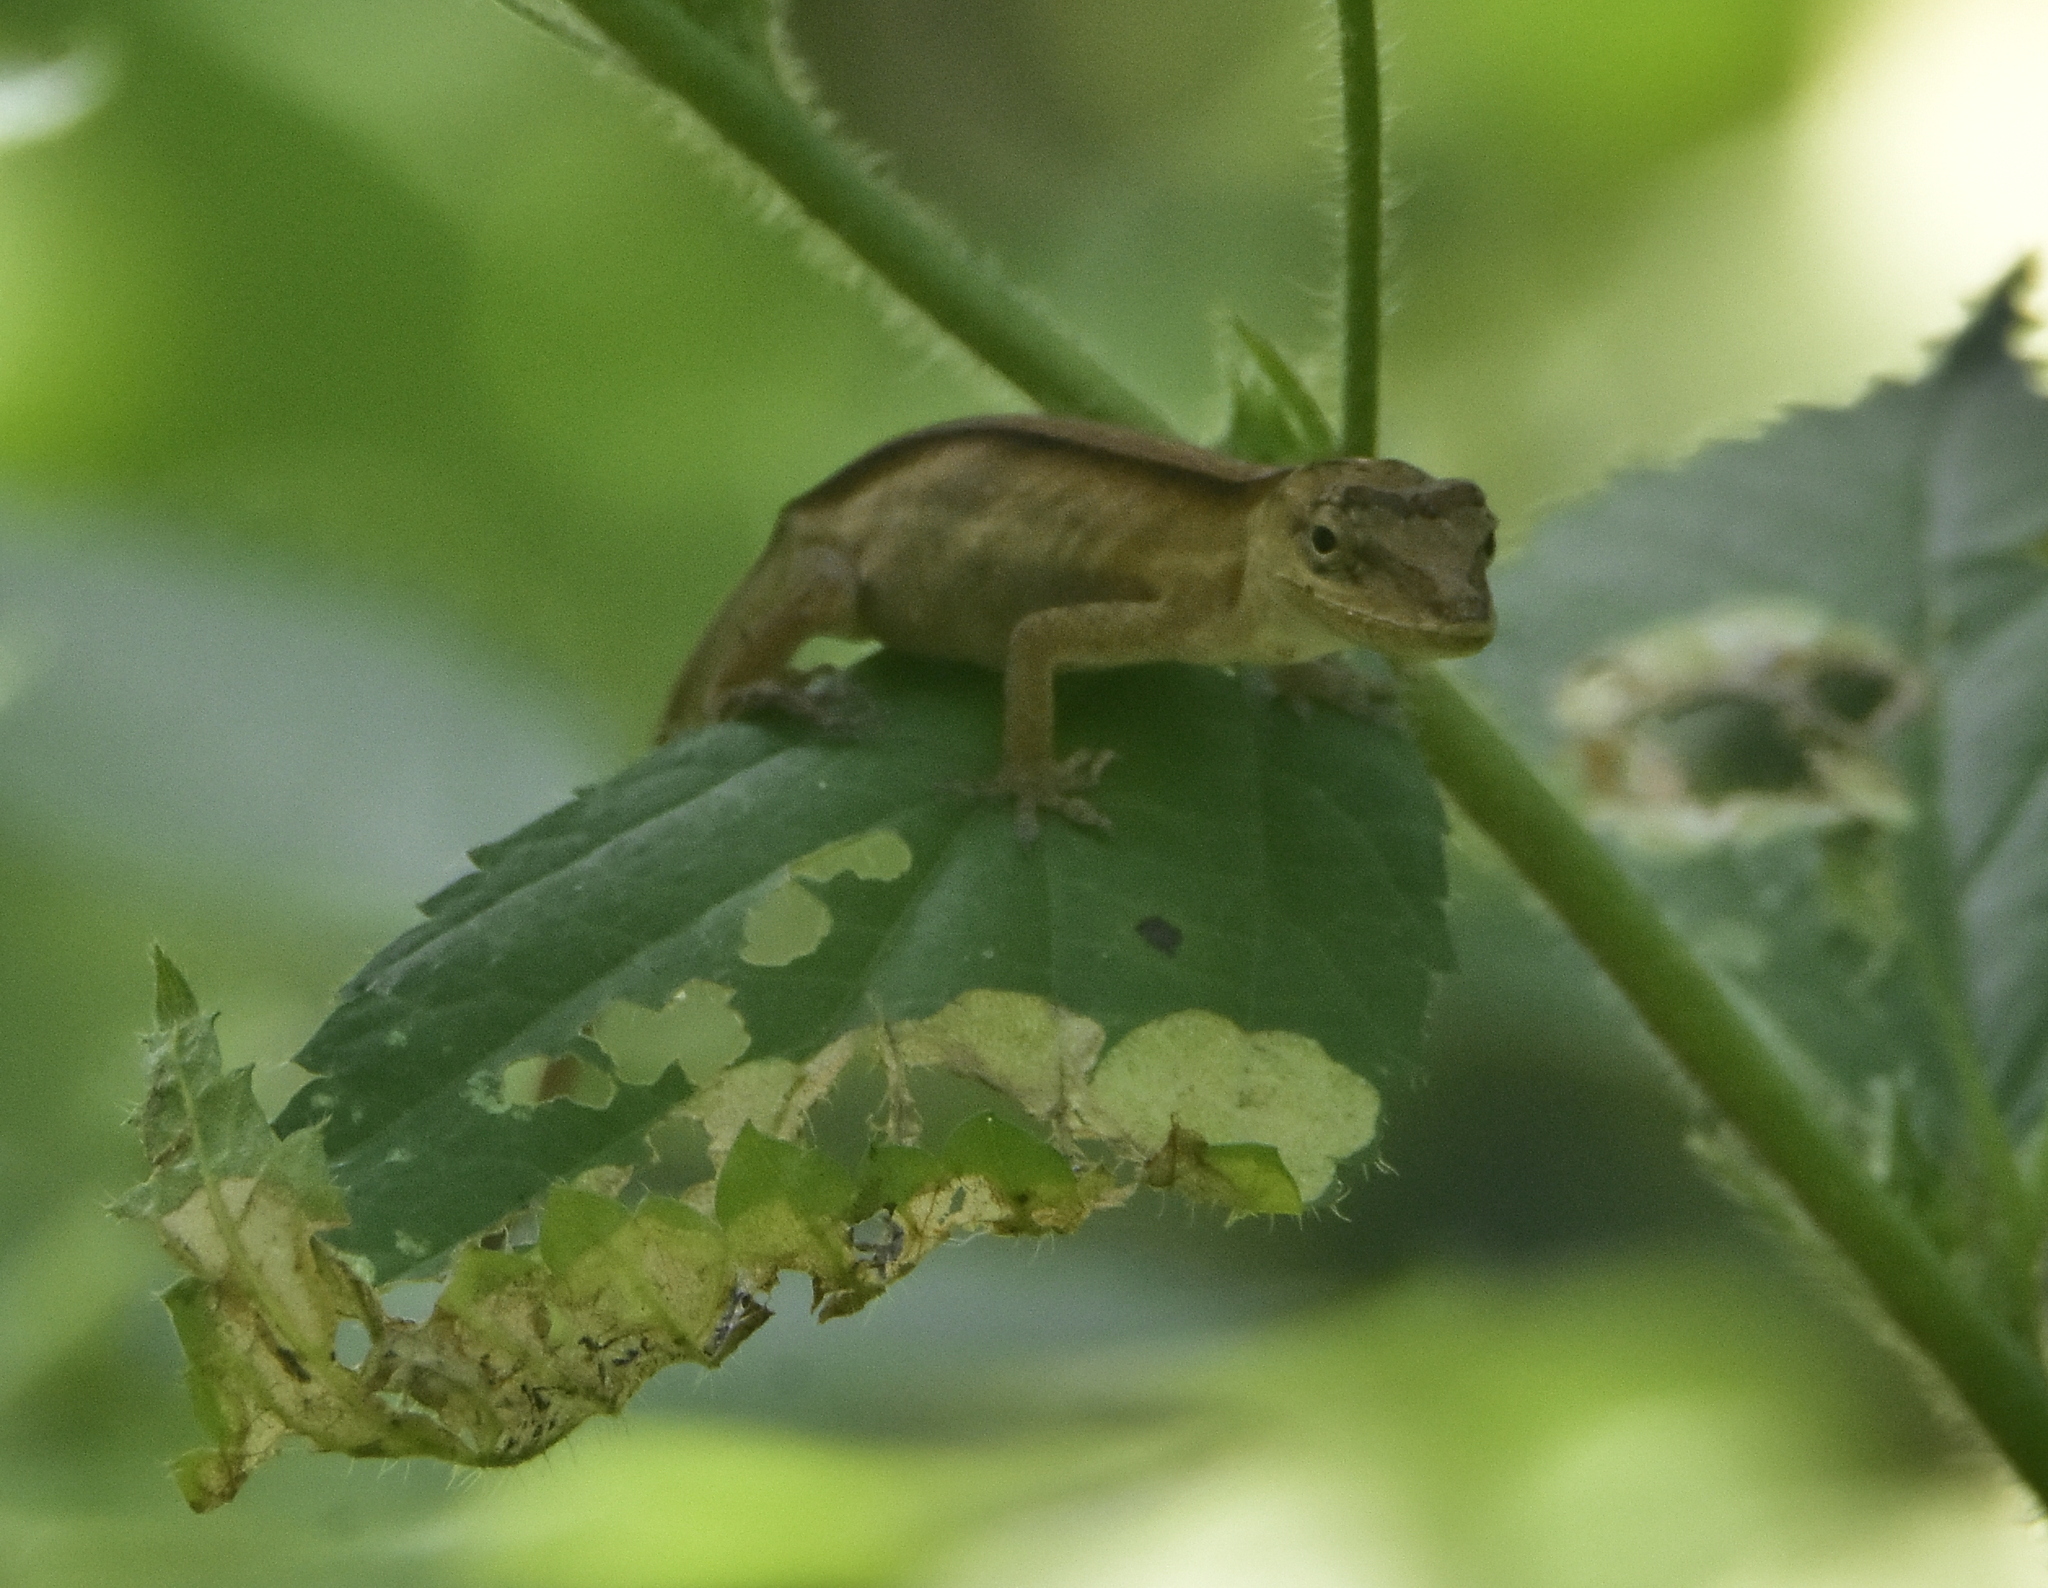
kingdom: Animalia
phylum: Chordata
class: Squamata
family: Dactyloidae
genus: Anolis
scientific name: Anolis nebulosus
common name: Clouded anole
